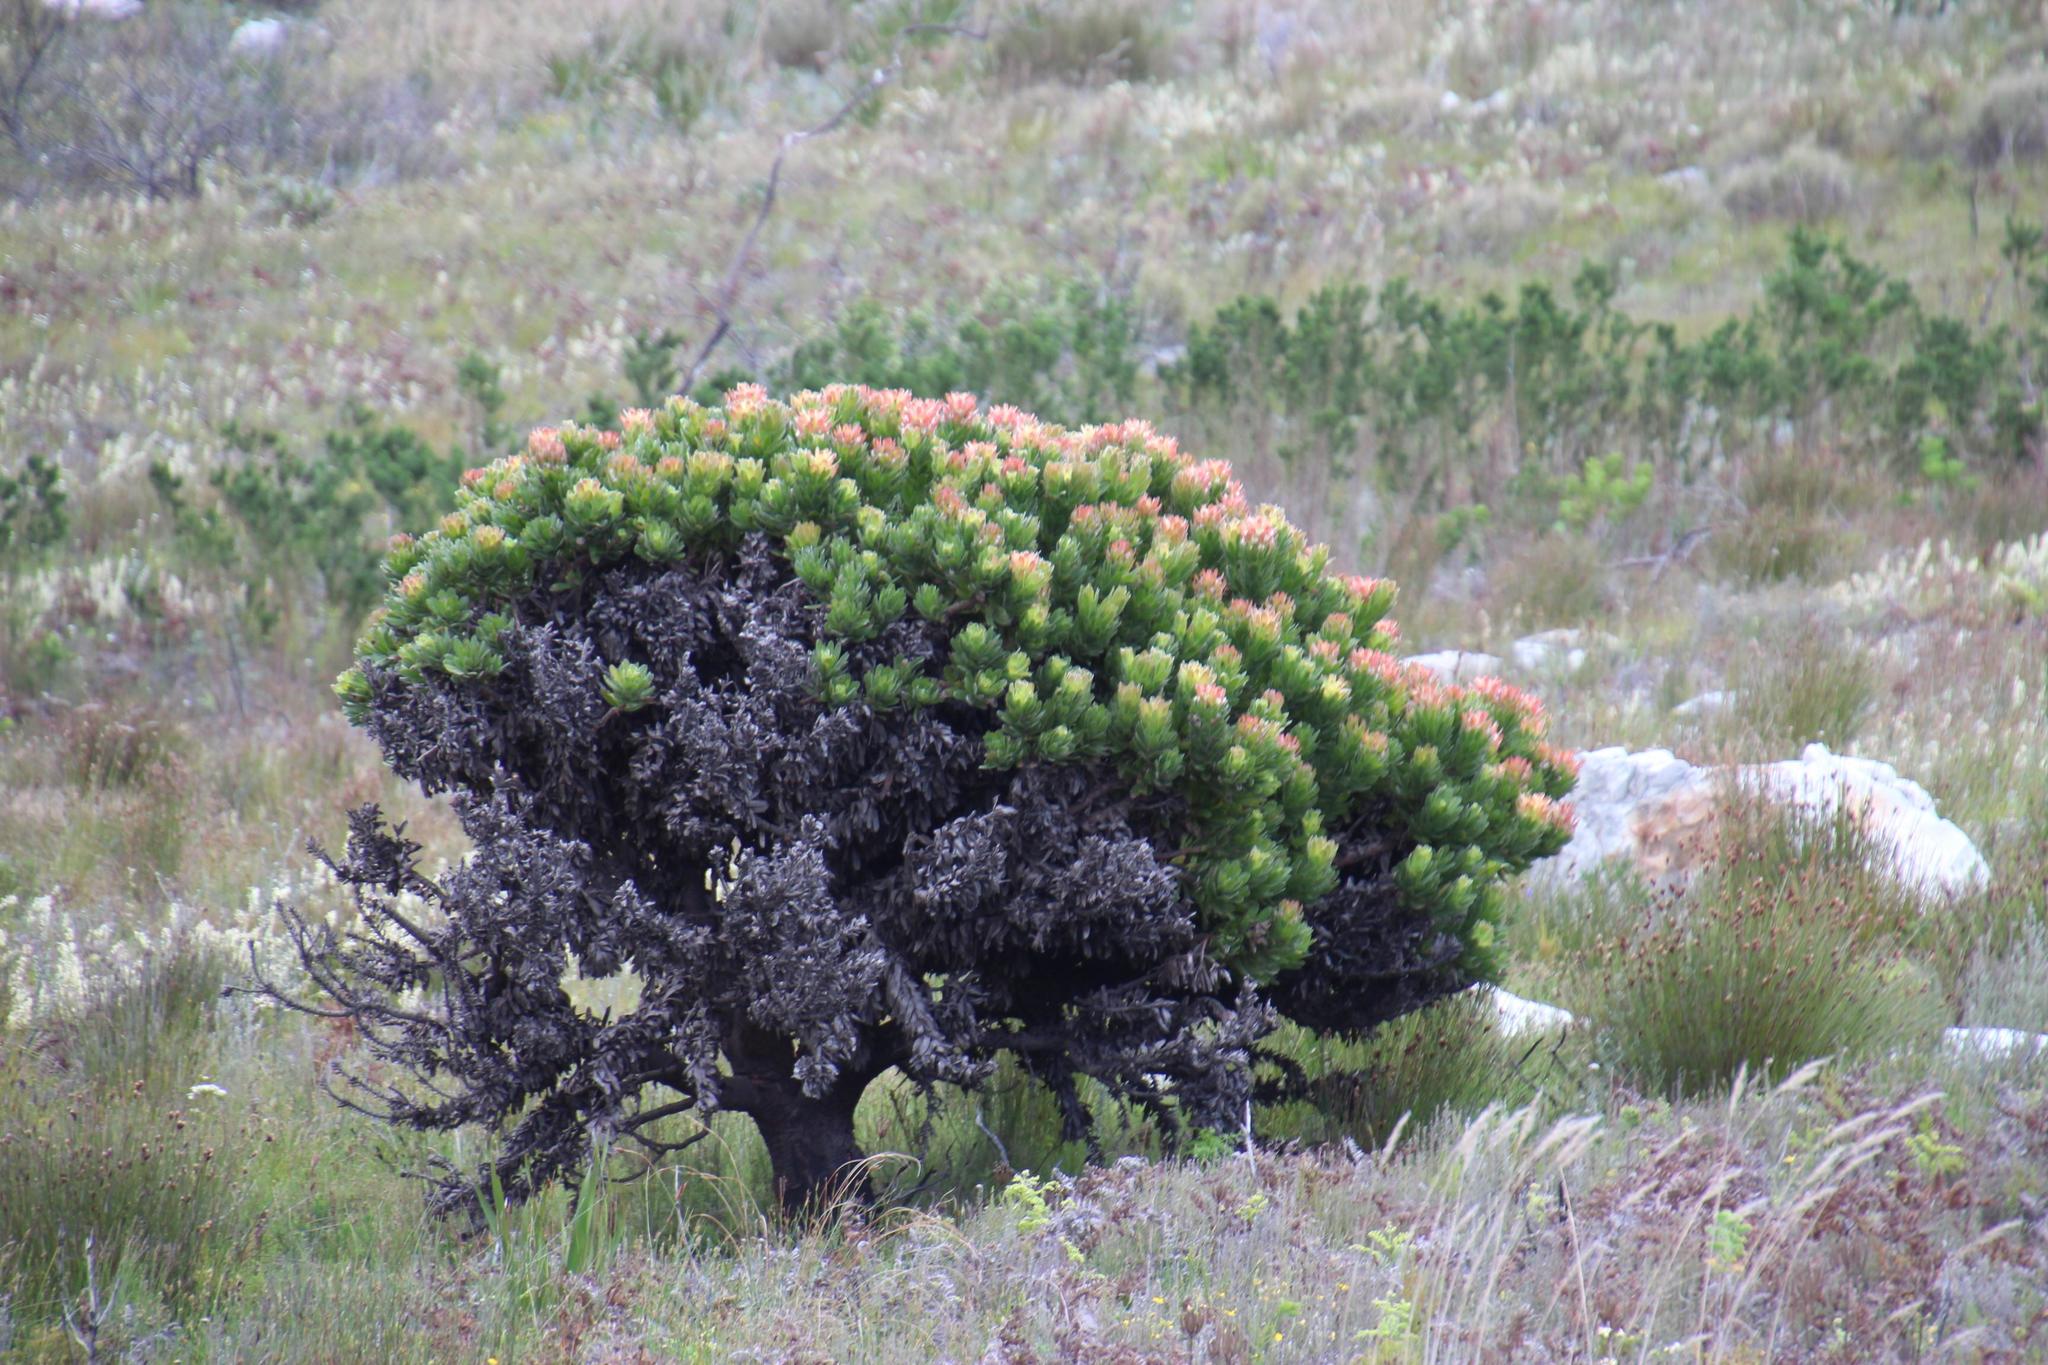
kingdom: Plantae
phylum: Tracheophyta
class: Magnoliopsida
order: Proteales
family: Proteaceae
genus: Mimetes
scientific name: Mimetes fimbriifolius
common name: Fringed bottlebrush
